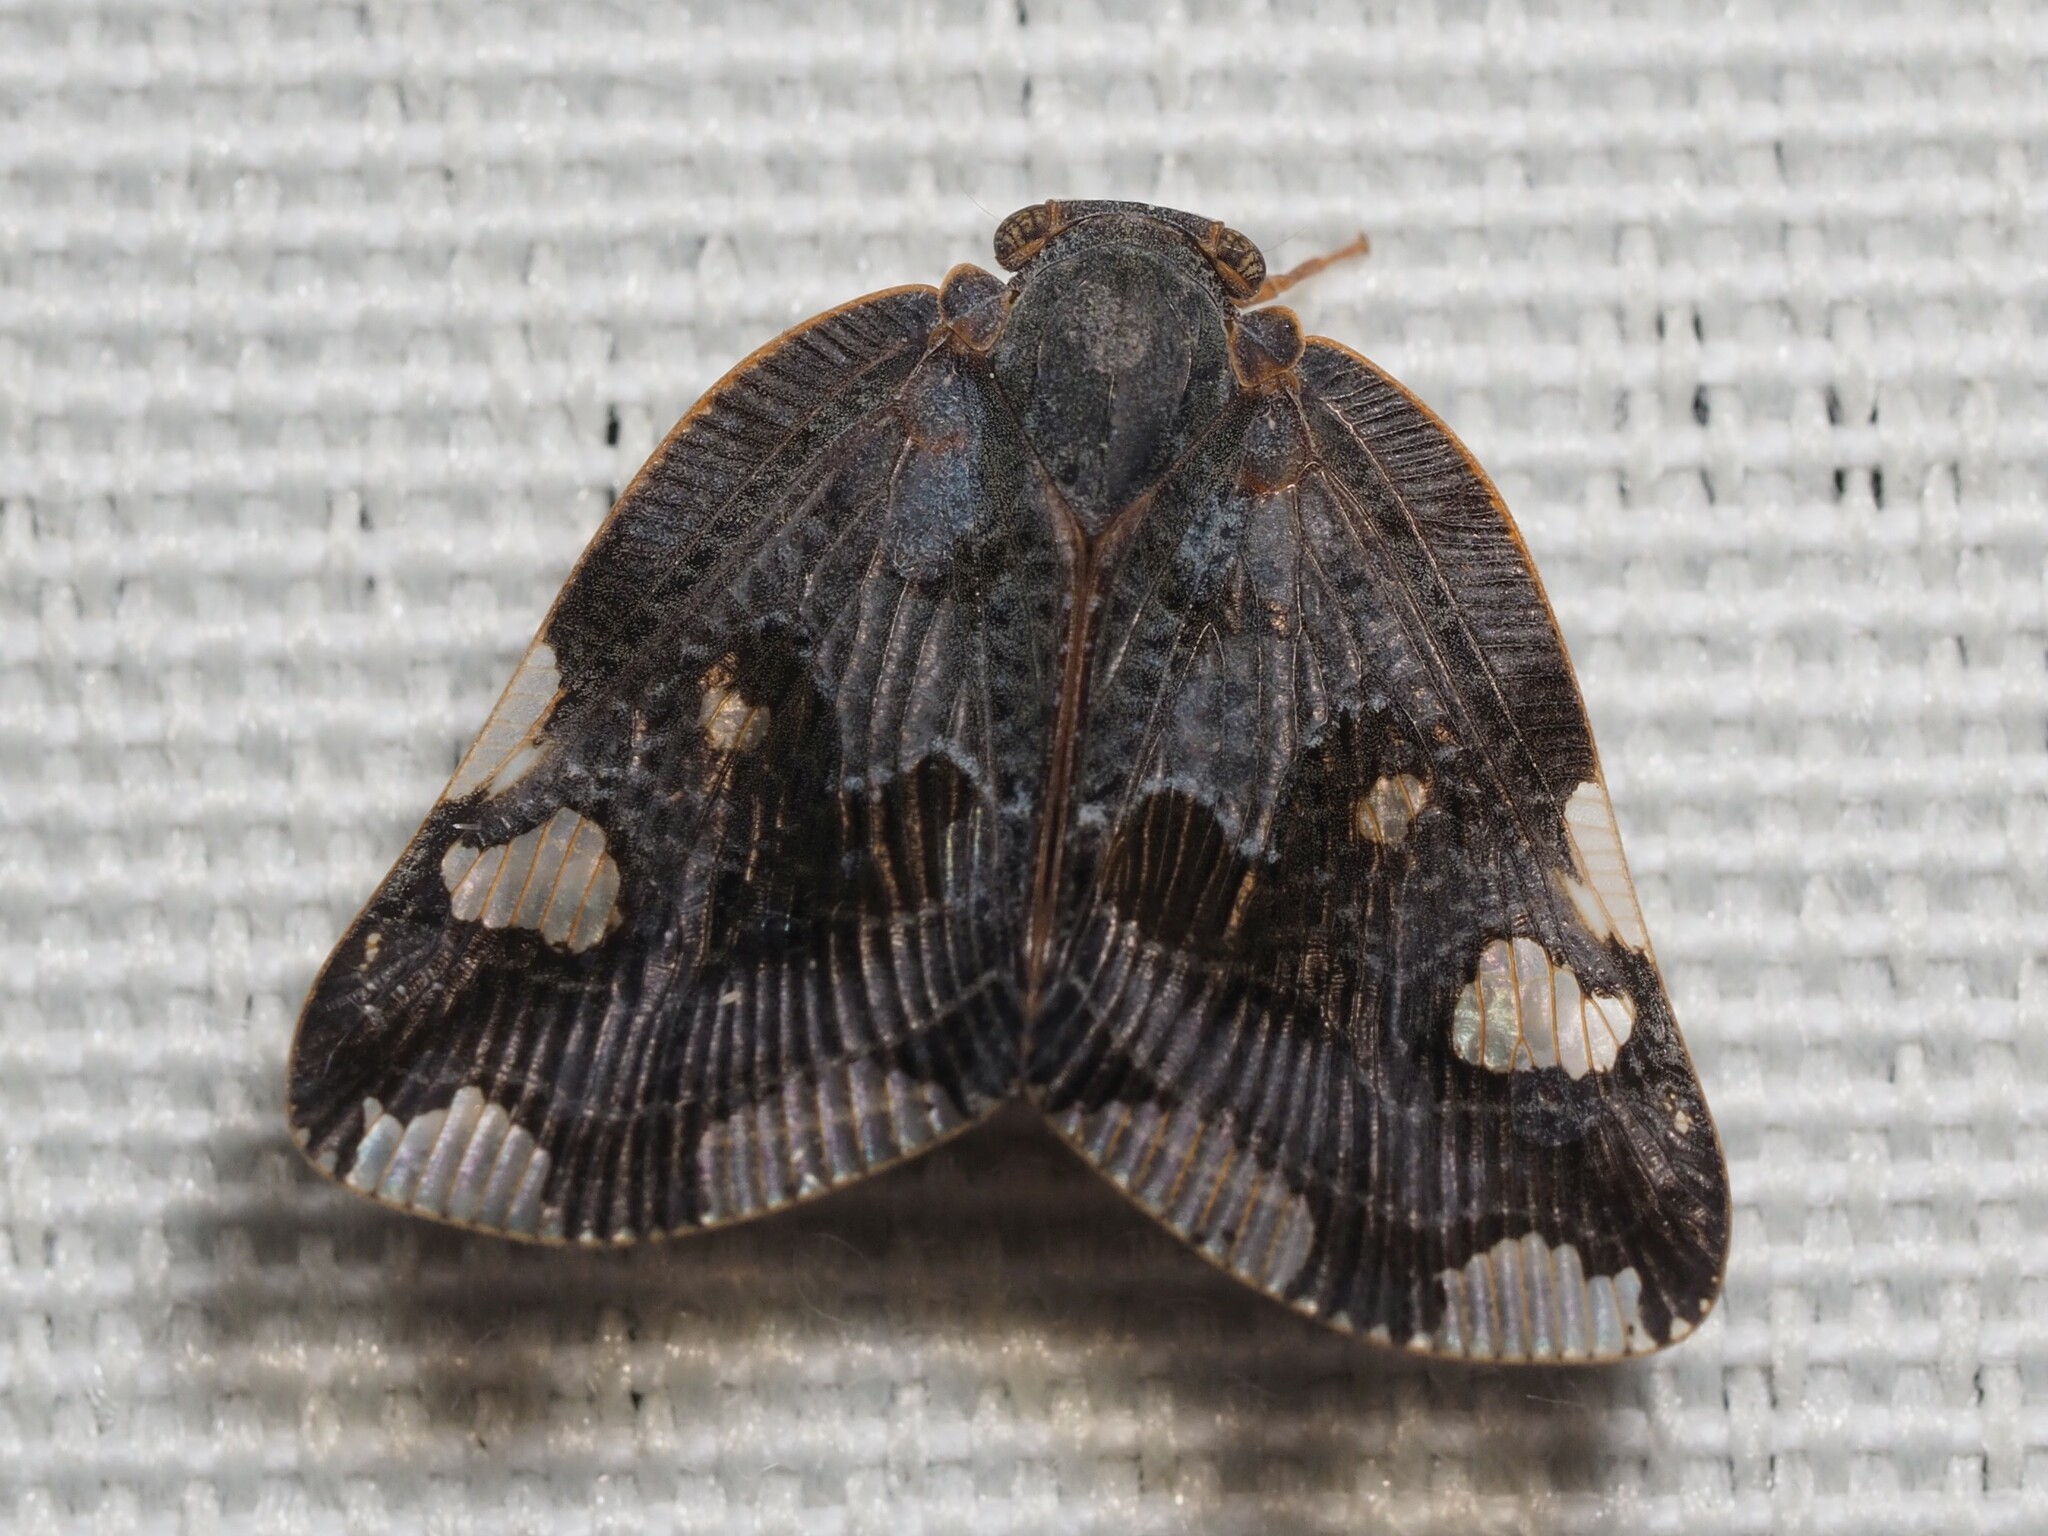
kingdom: Animalia
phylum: Arthropoda
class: Insecta
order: Hemiptera
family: Ricaniidae
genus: Ricania
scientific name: Ricania speculum
